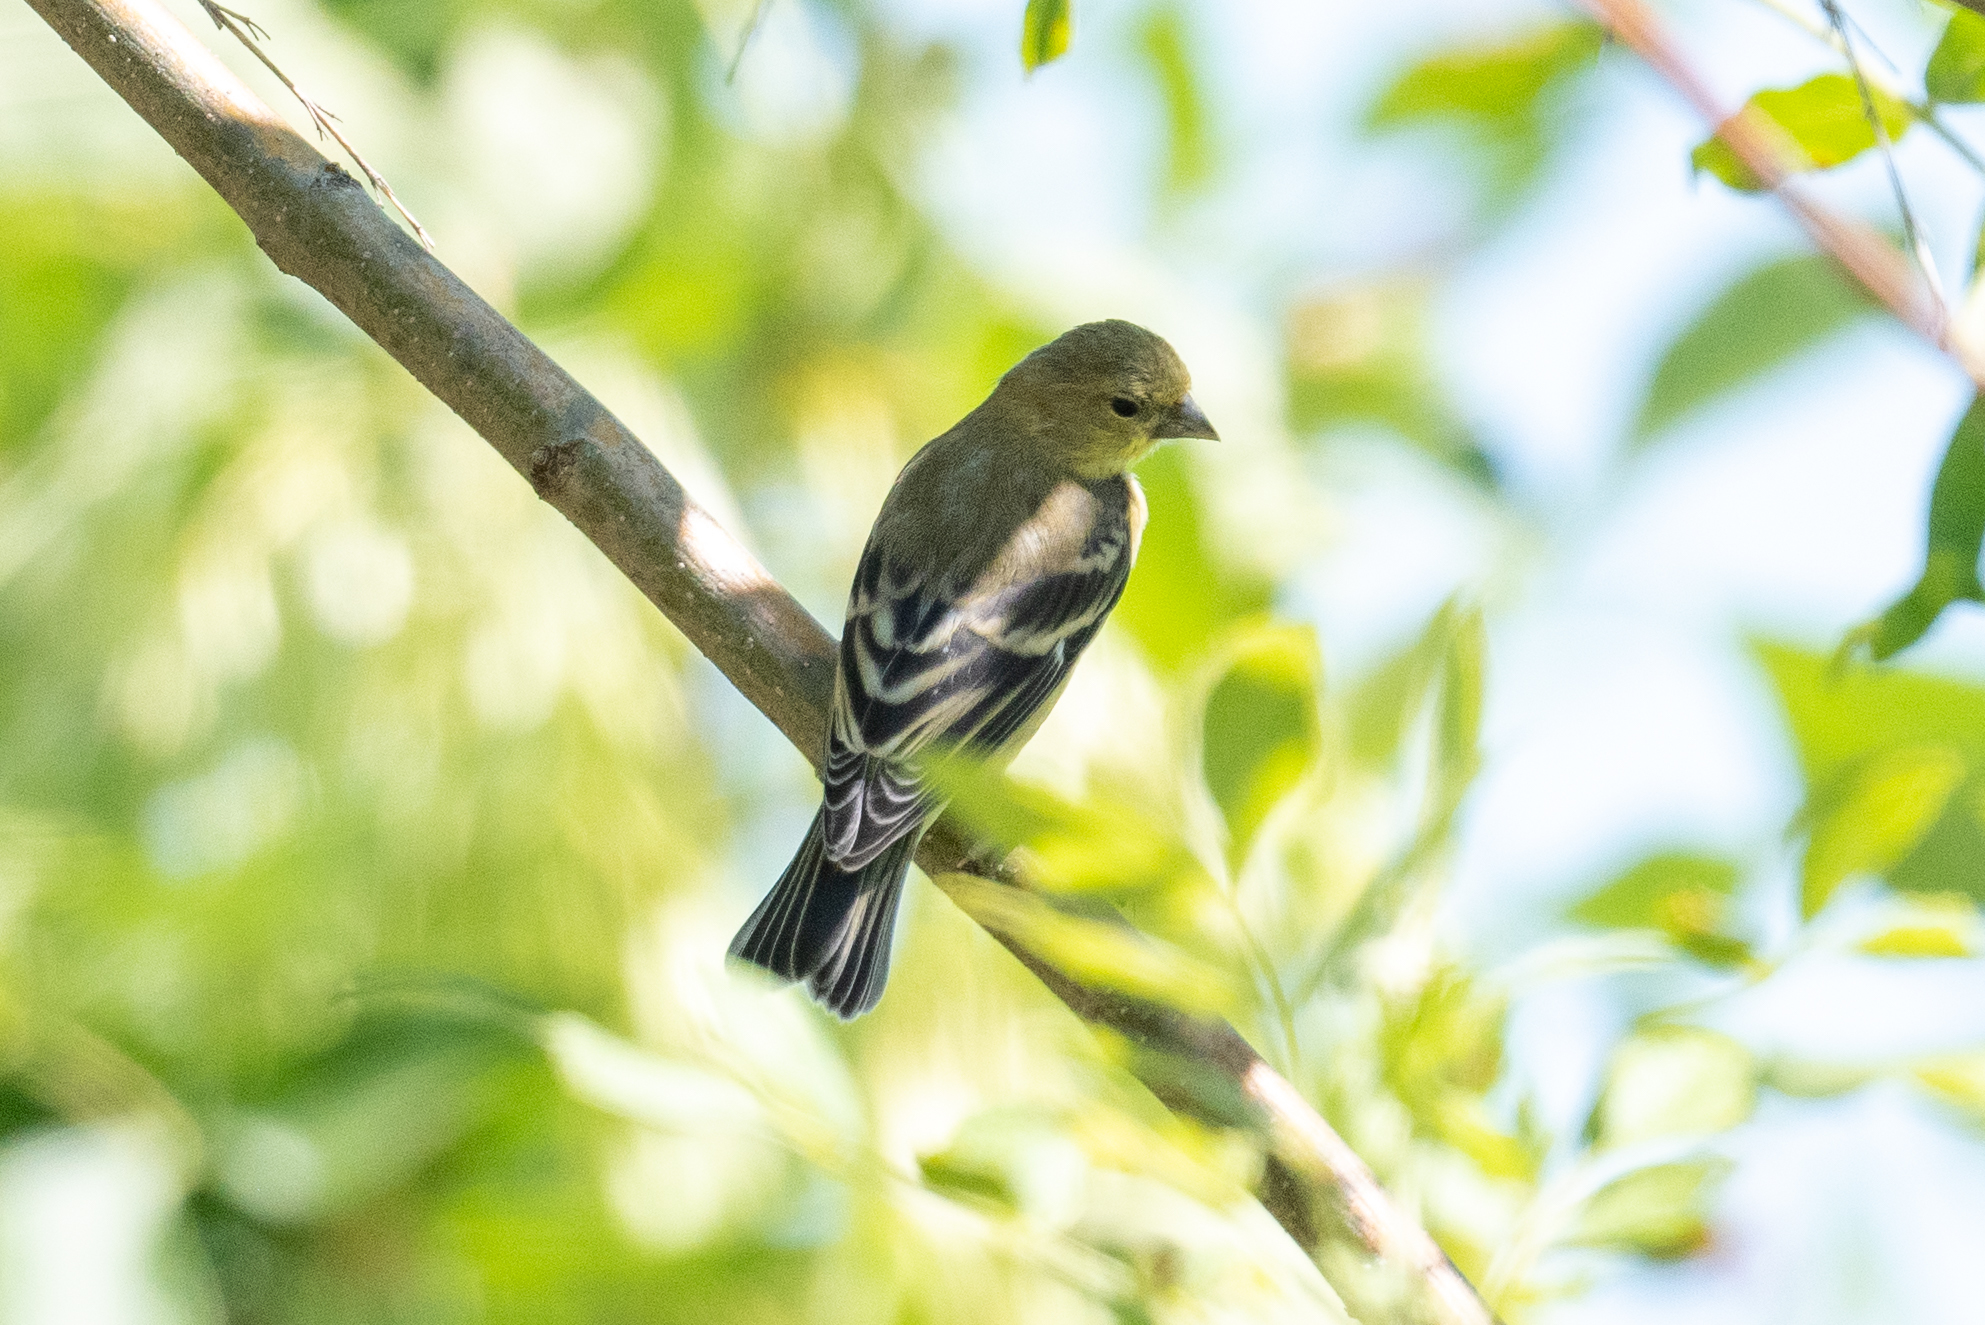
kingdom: Animalia
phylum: Chordata
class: Aves
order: Passeriformes
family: Fringillidae
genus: Spinus
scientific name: Spinus psaltria
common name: Lesser goldfinch
